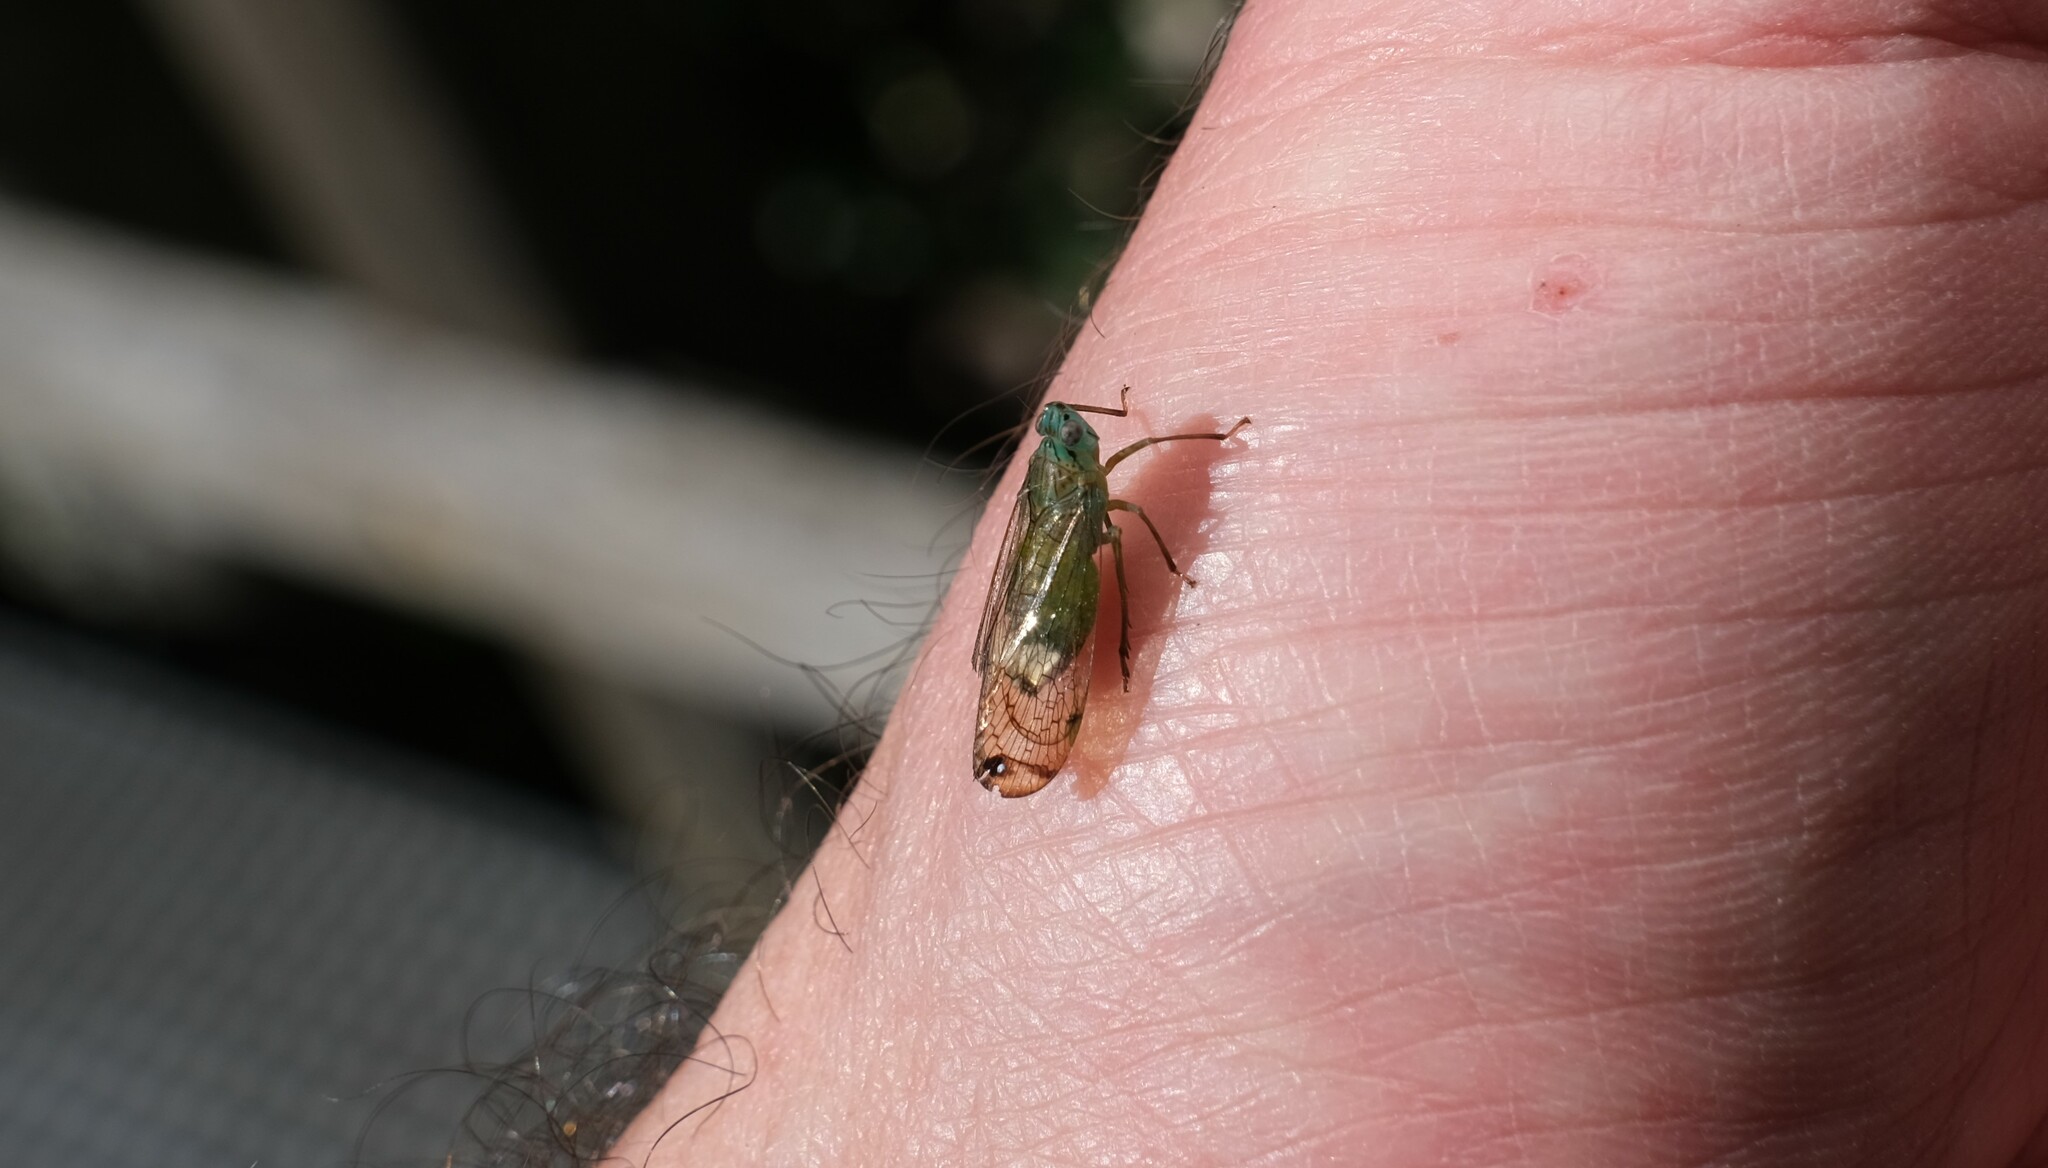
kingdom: Animalia
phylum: Arthropoda
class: Insecta
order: Hemiptera
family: Lophopidae
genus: Magia
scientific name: Magia subocellata
